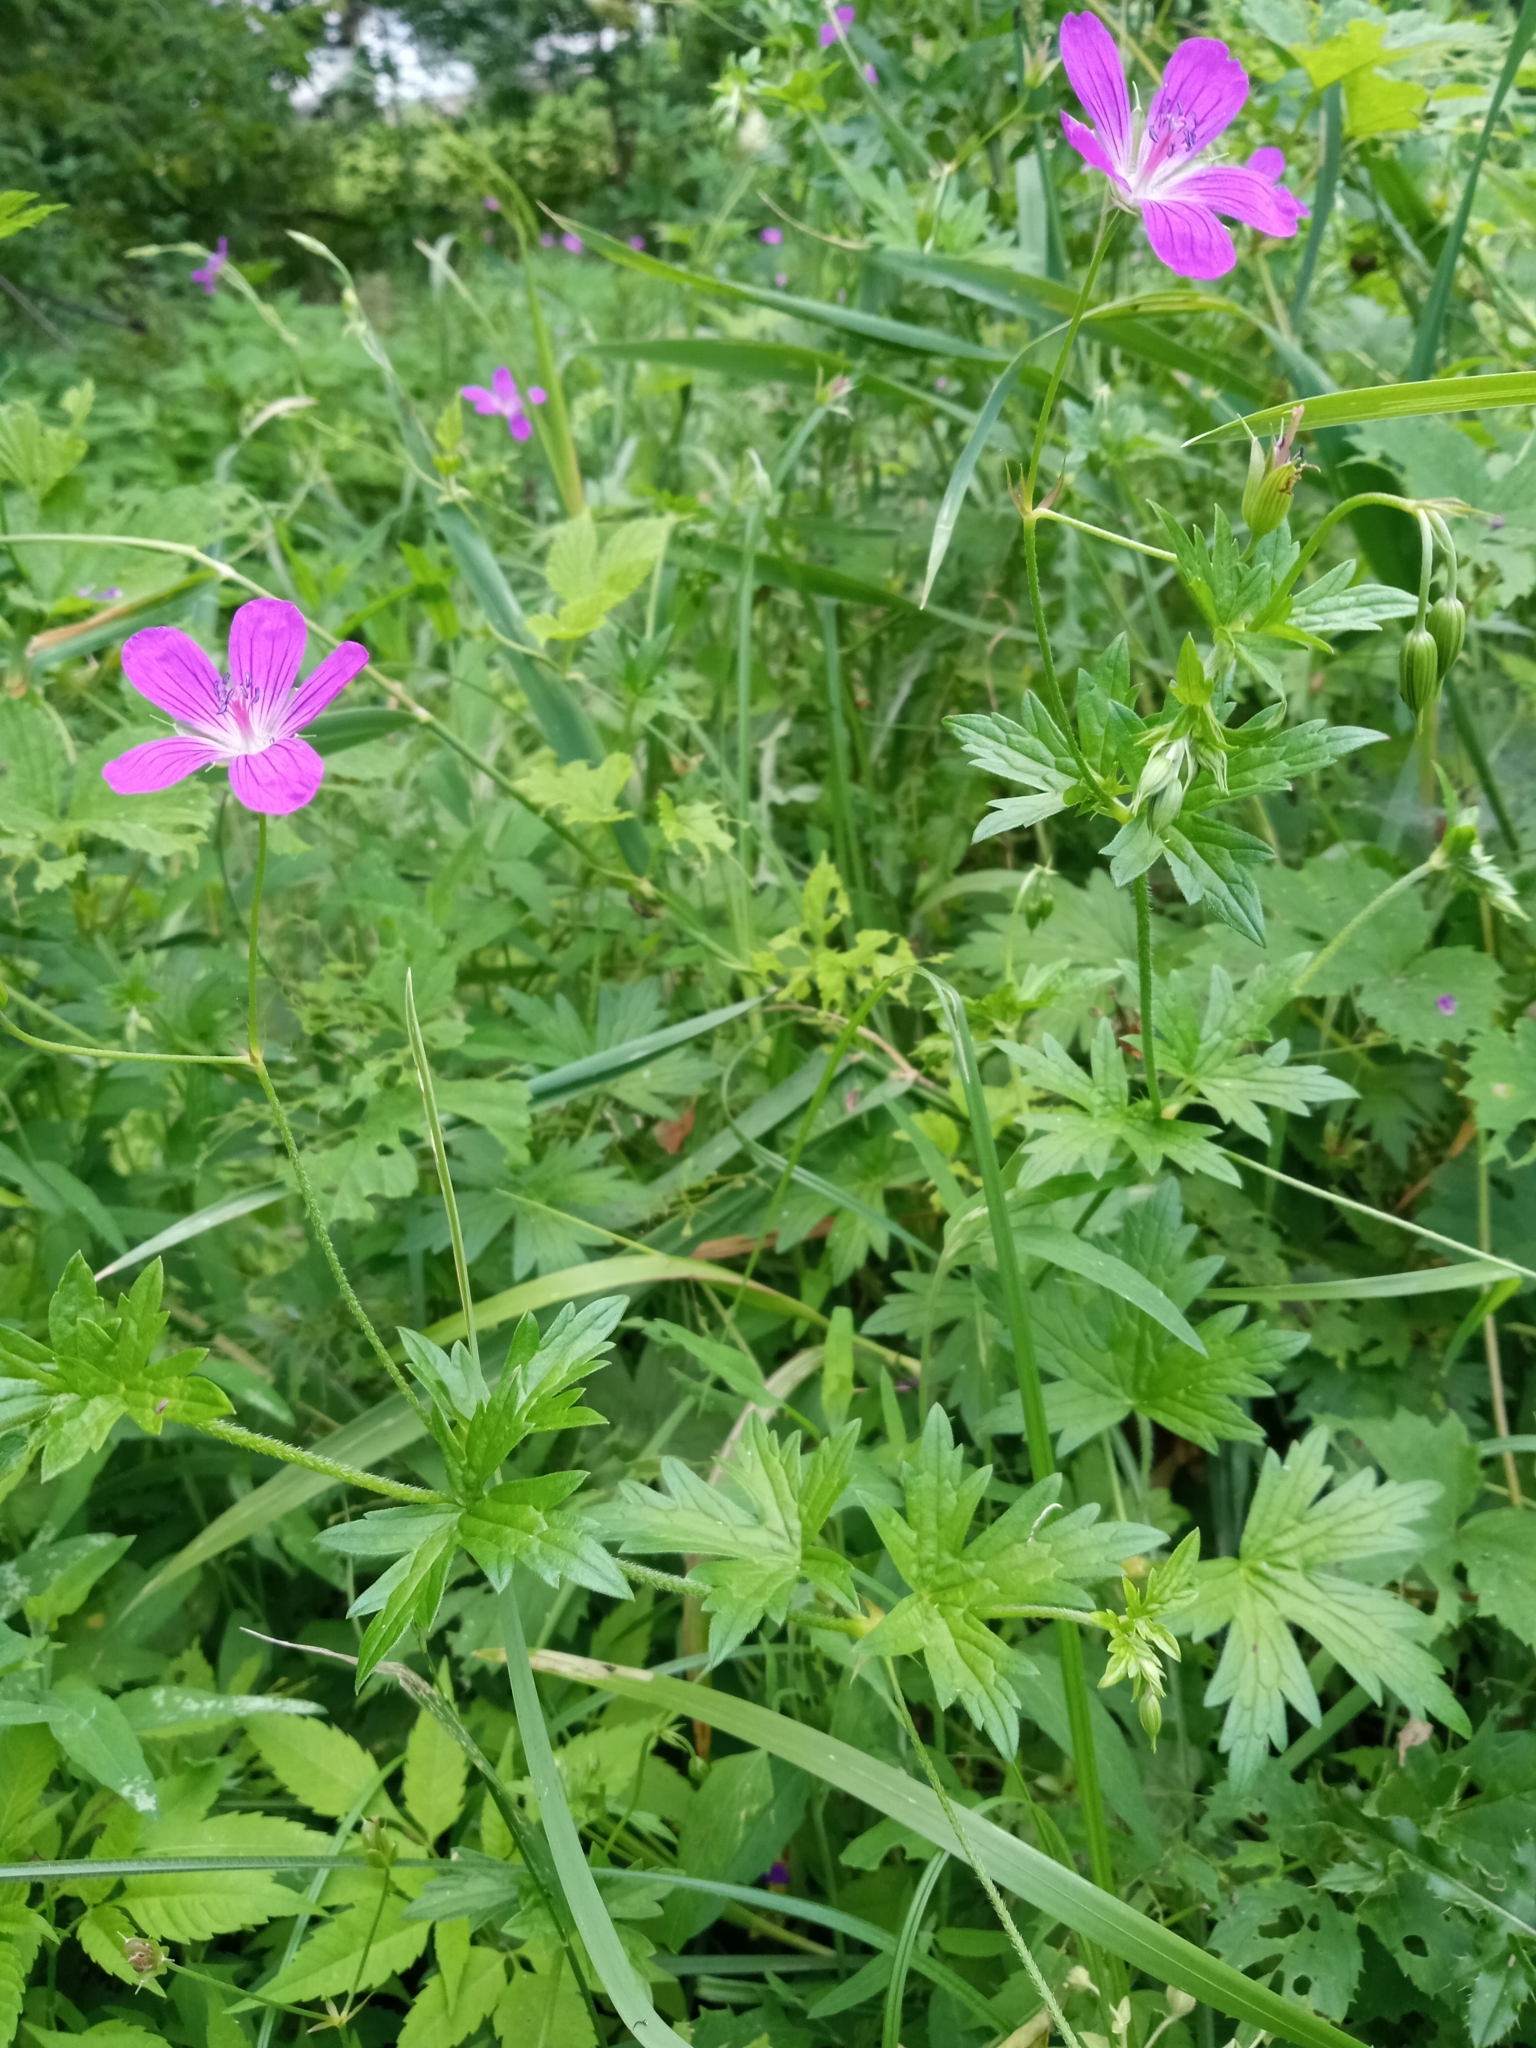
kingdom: Plantae
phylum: Tracheophyta
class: Magnoliopsida
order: Geraniales
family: Geraniaceae
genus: Geranium
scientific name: Geranium palustre
